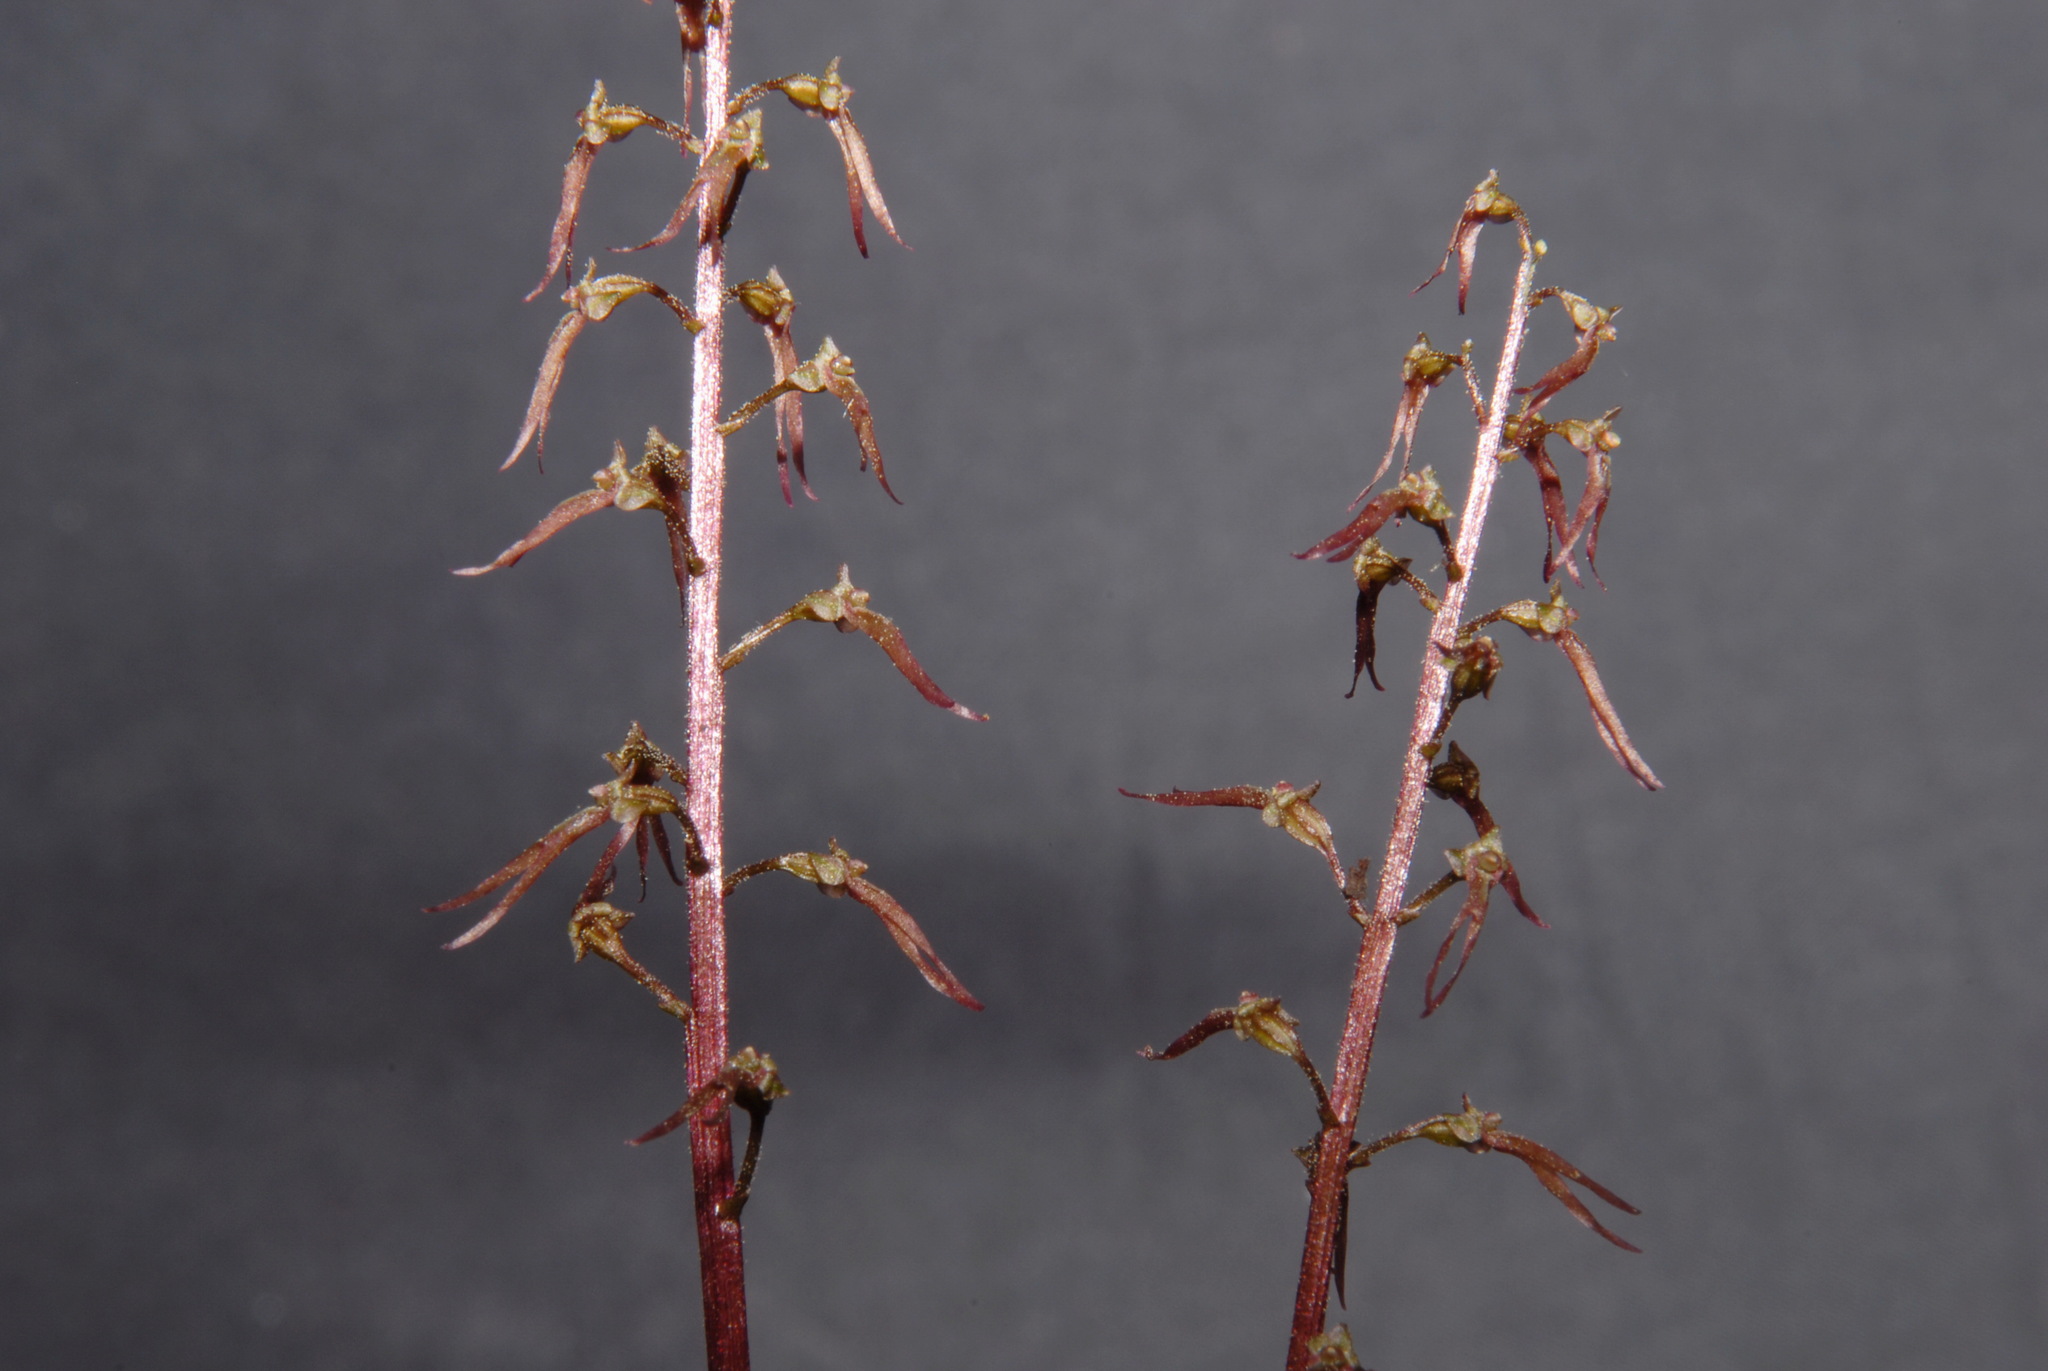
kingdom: Plantae
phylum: Tracheophyta
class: Liliopsida
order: Asparagales
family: Orchidaceae
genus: Neottia
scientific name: Neottia bifolia
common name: Southern twayblade
